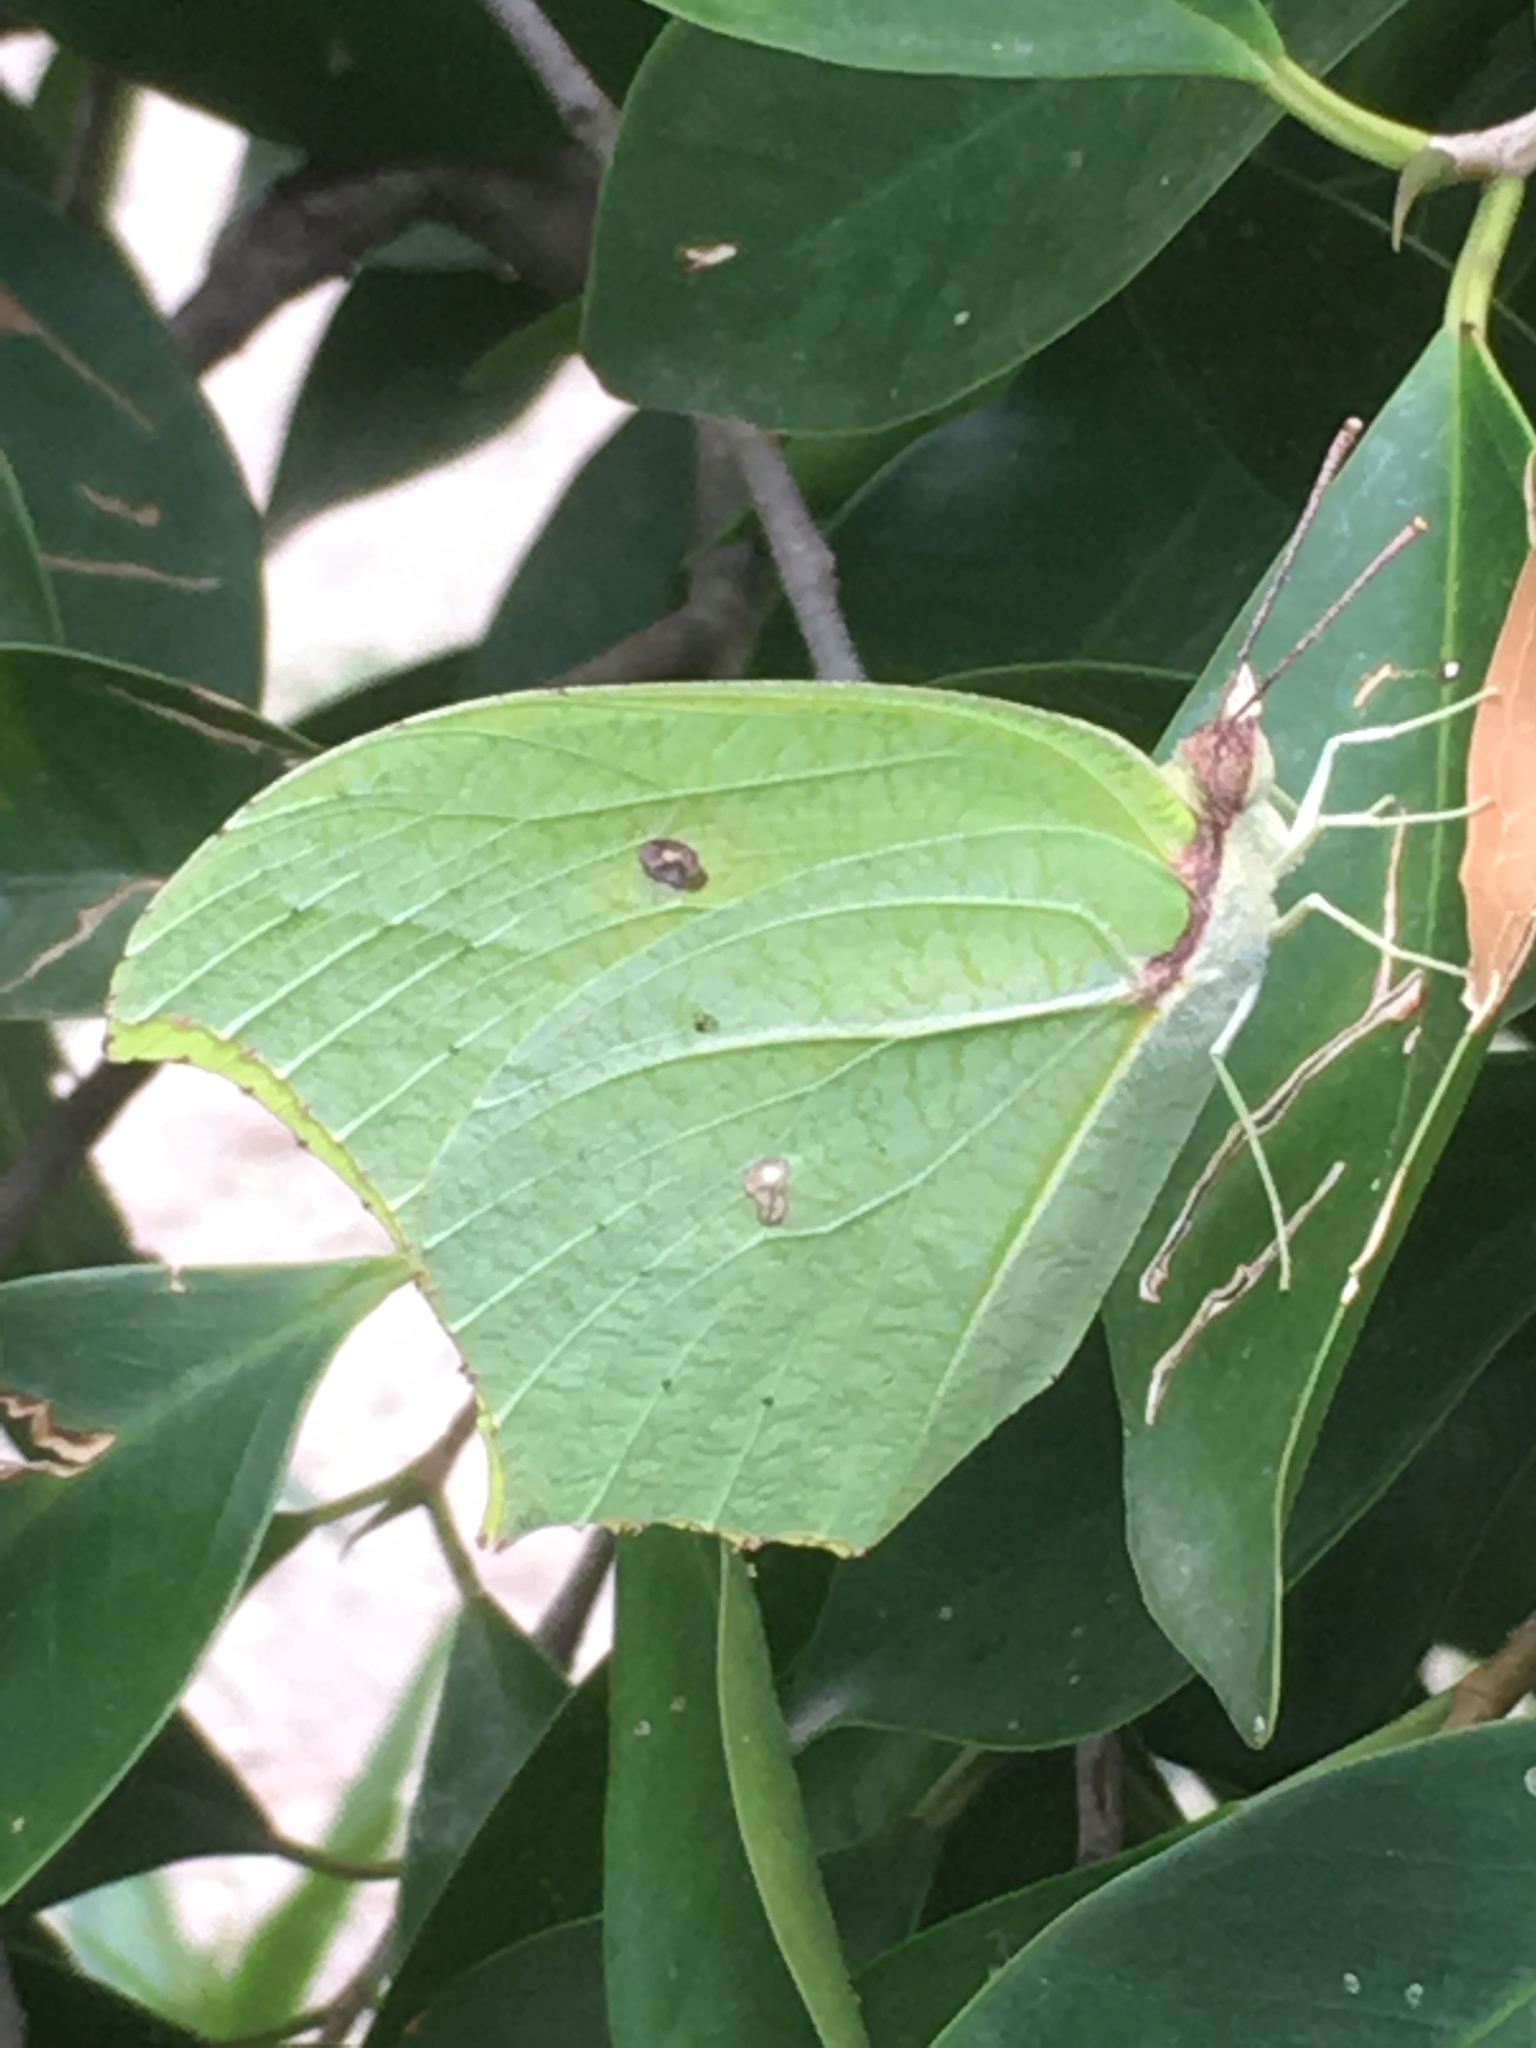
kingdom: Animalia
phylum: Arthropoda
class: Insecta
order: Lepidoptera
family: Pieridae
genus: Anteos
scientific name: Anteos maerula
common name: Angled sulphur
